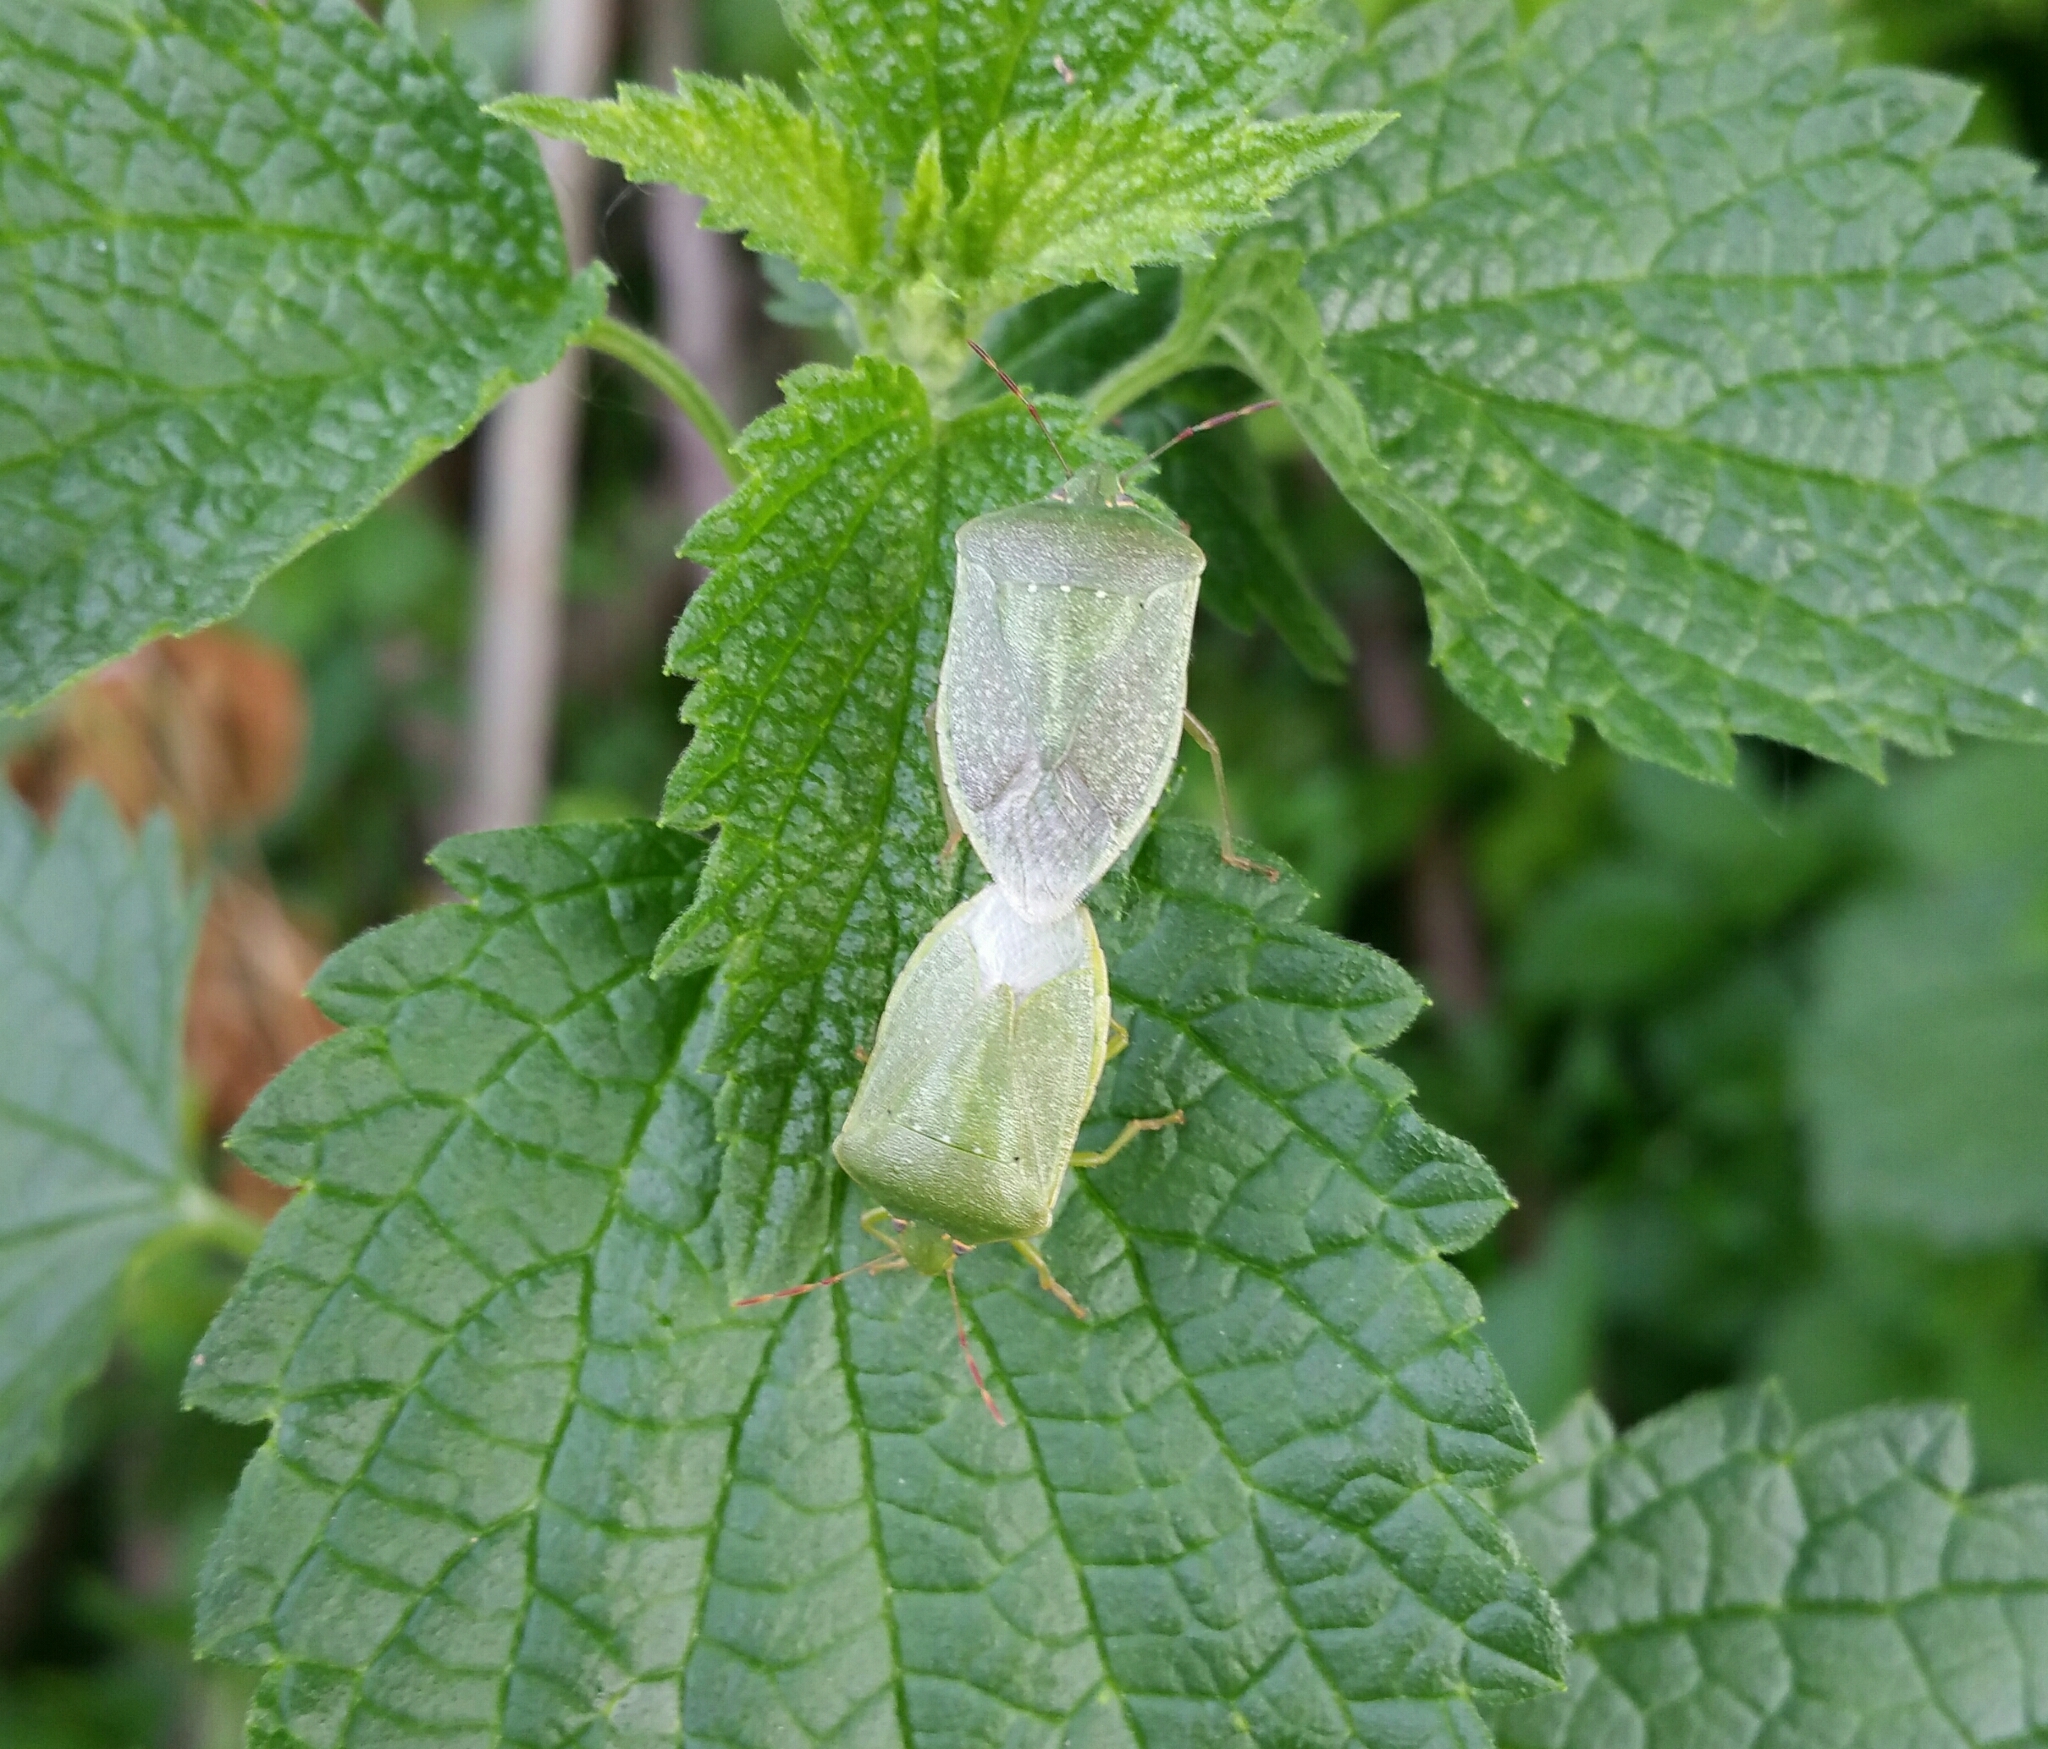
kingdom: Animalia
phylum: Arthropoda
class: Insecta
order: Hemiptera
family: Pentatomidae
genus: Nezara
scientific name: Nezara viridula
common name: Southern green stink bug
